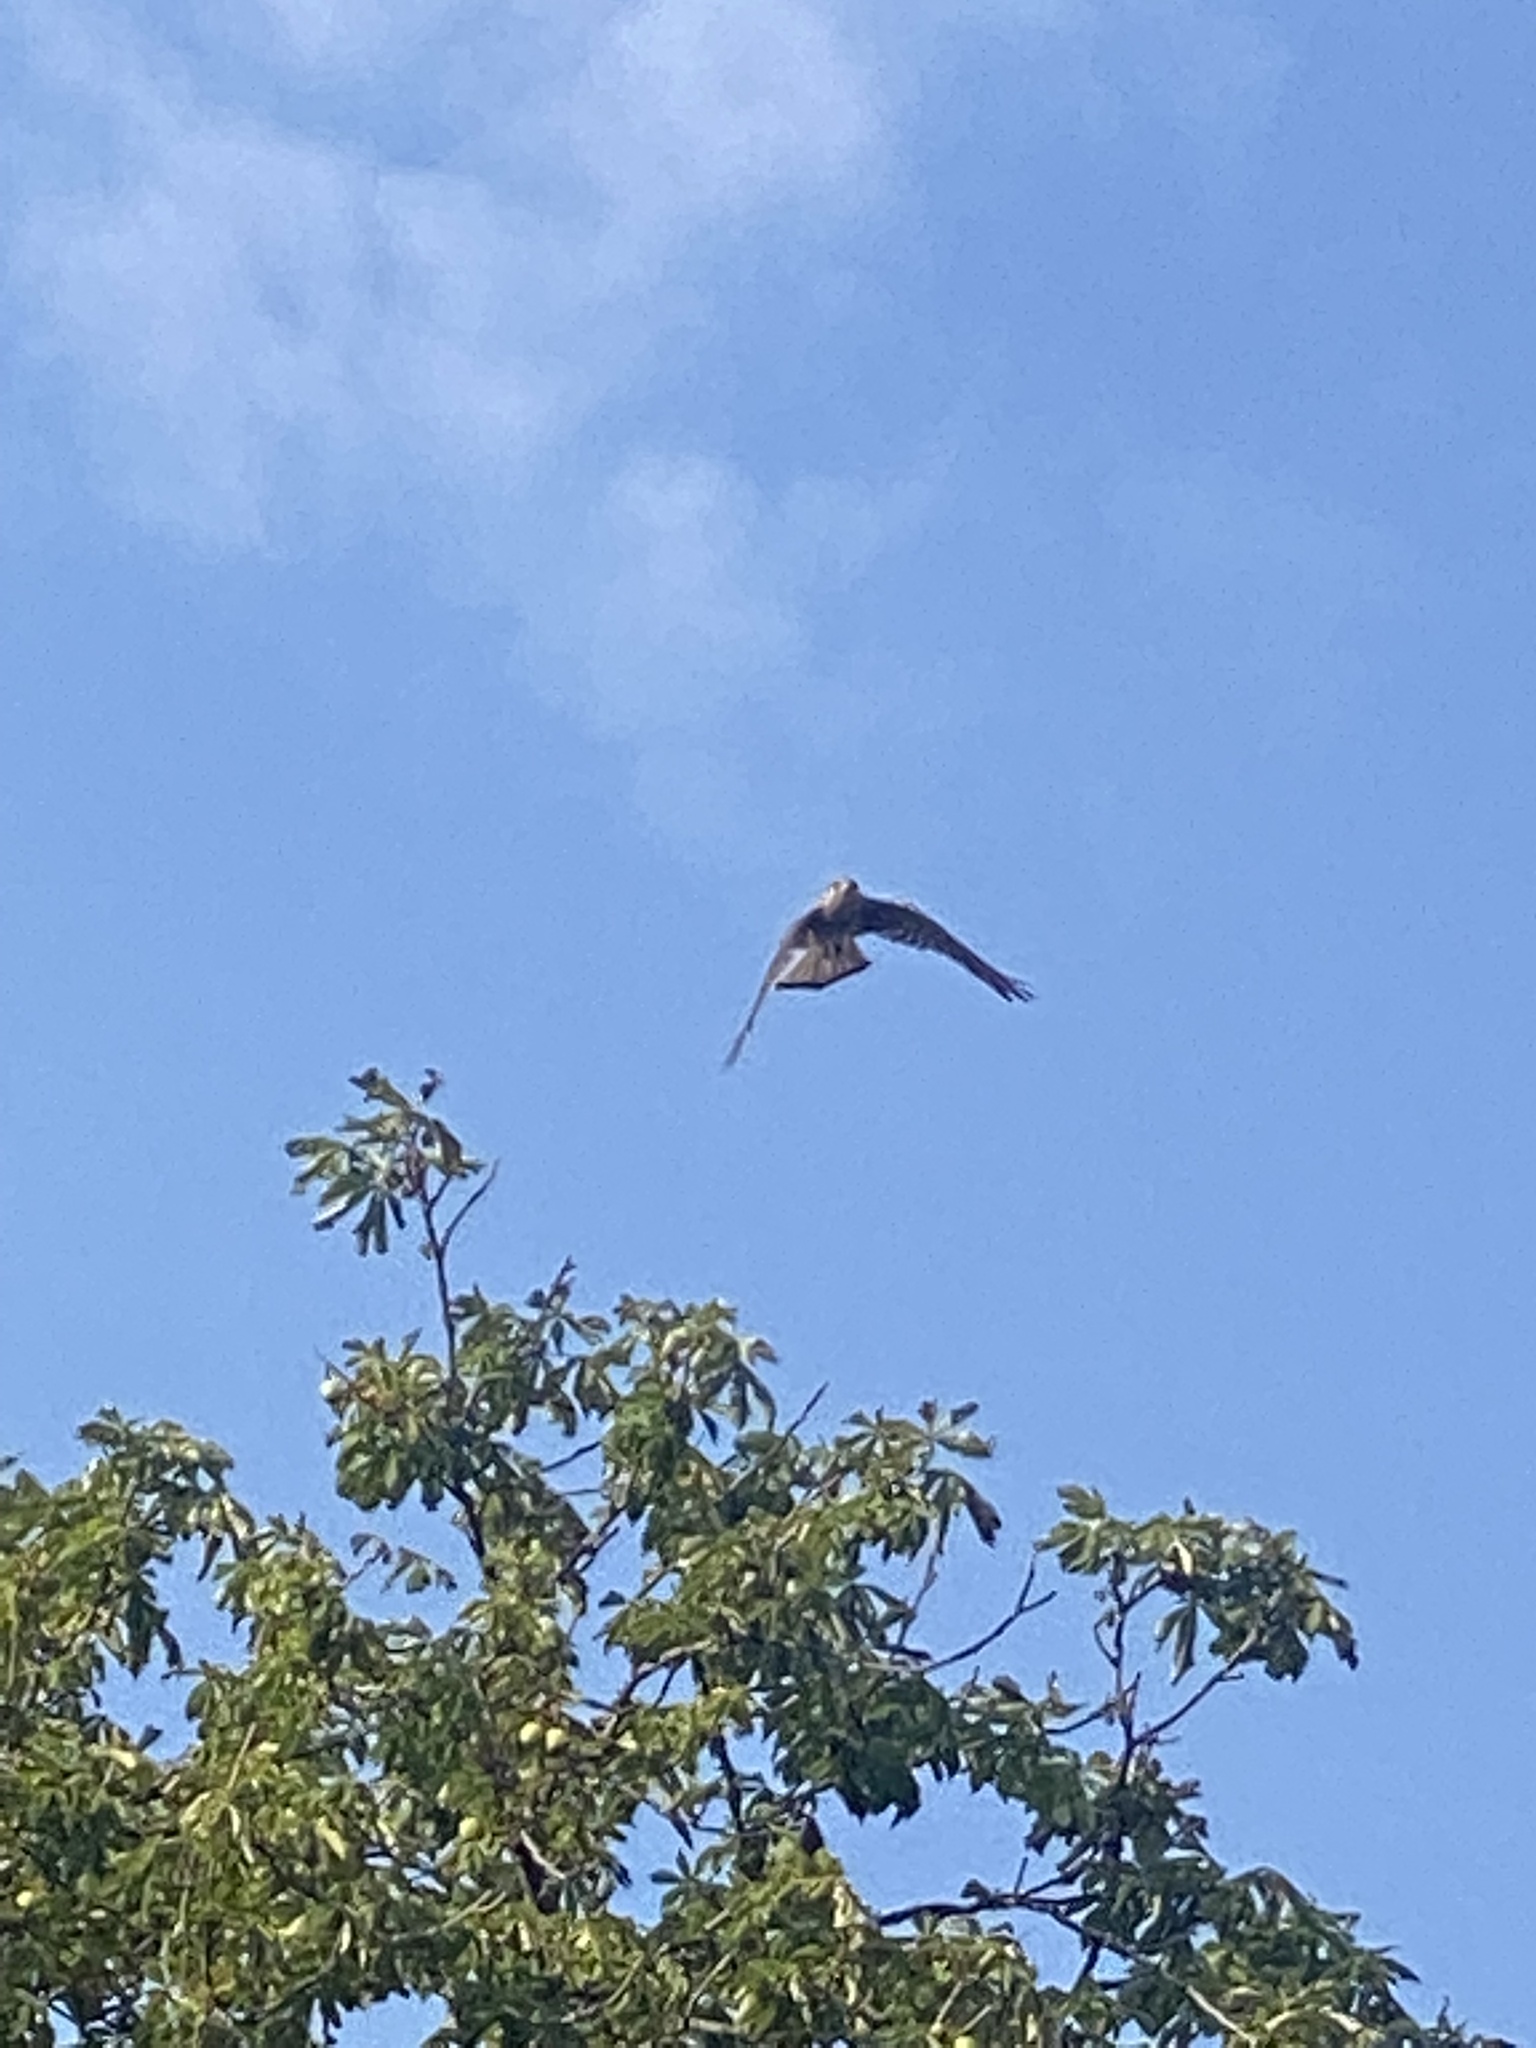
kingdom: Animalia
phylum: Chordata
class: Aves
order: Falconiformes
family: Falconidae
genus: Falco
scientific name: Falco tinnunculus
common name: Common kestrel
